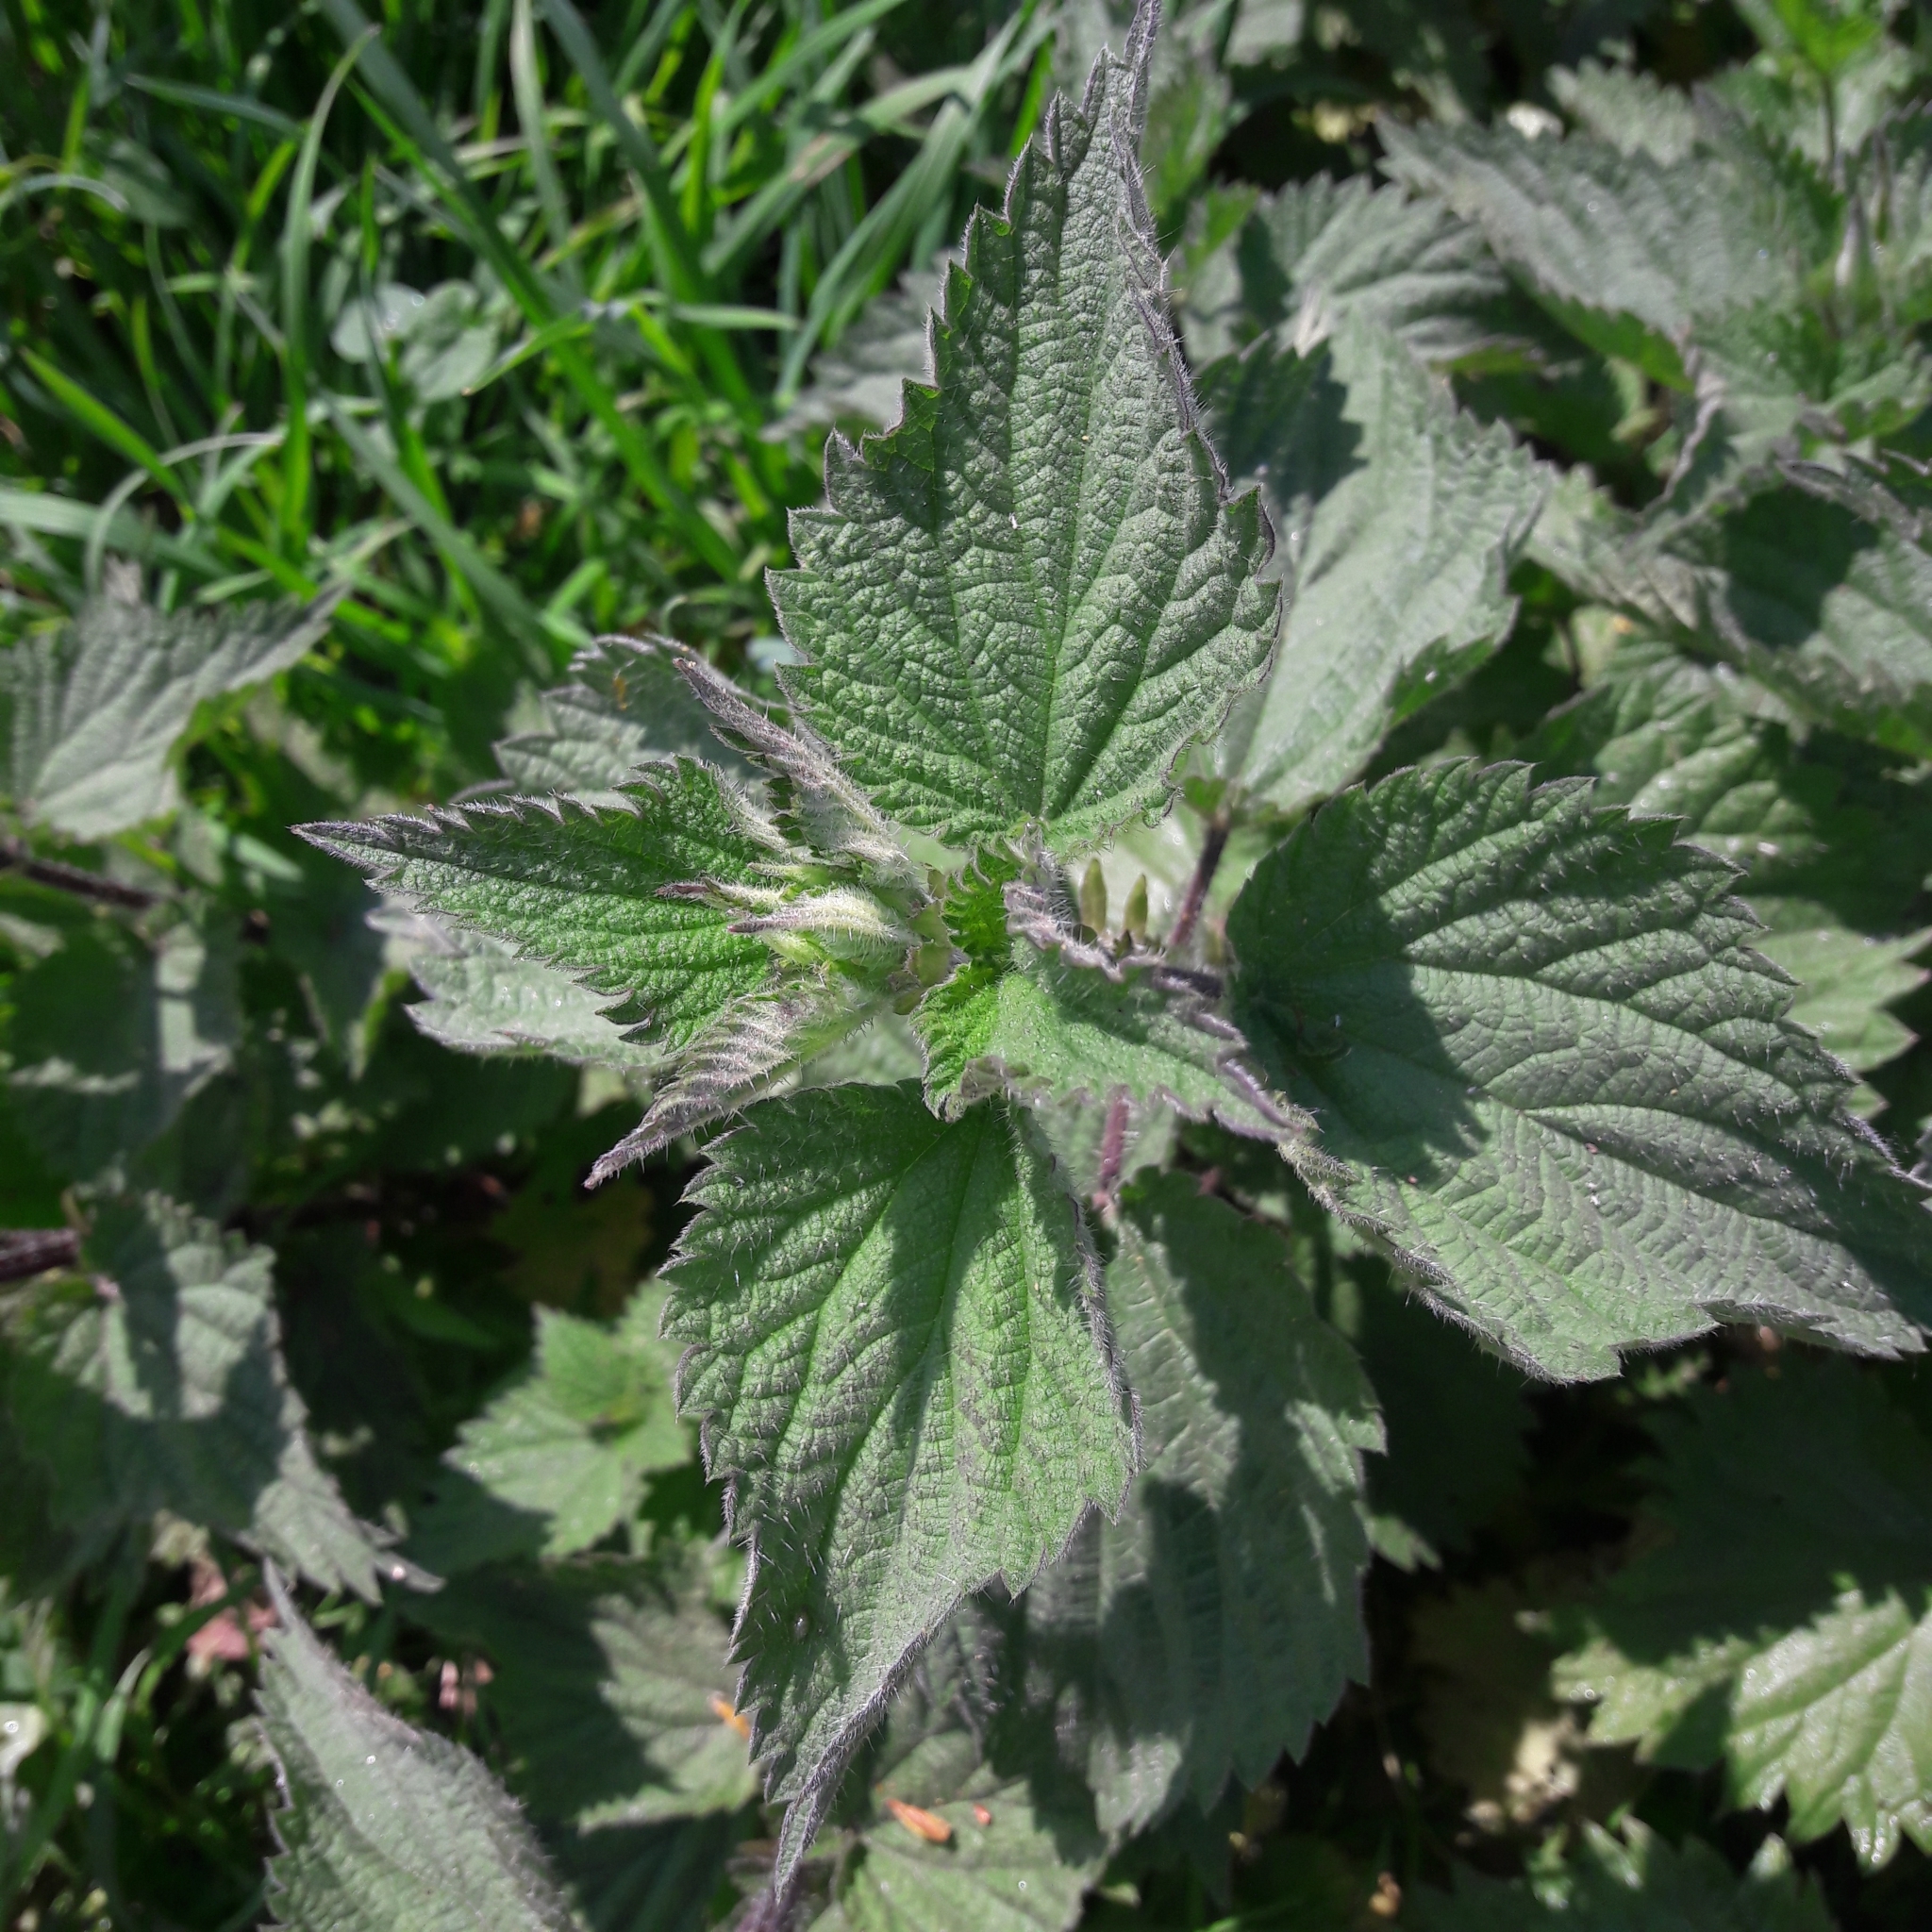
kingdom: Plantae
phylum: Tracheophyta
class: Magnoliopsida
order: Rosales
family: Urticaceae
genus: Urtica
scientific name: Urtica dioica
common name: Common nettle
